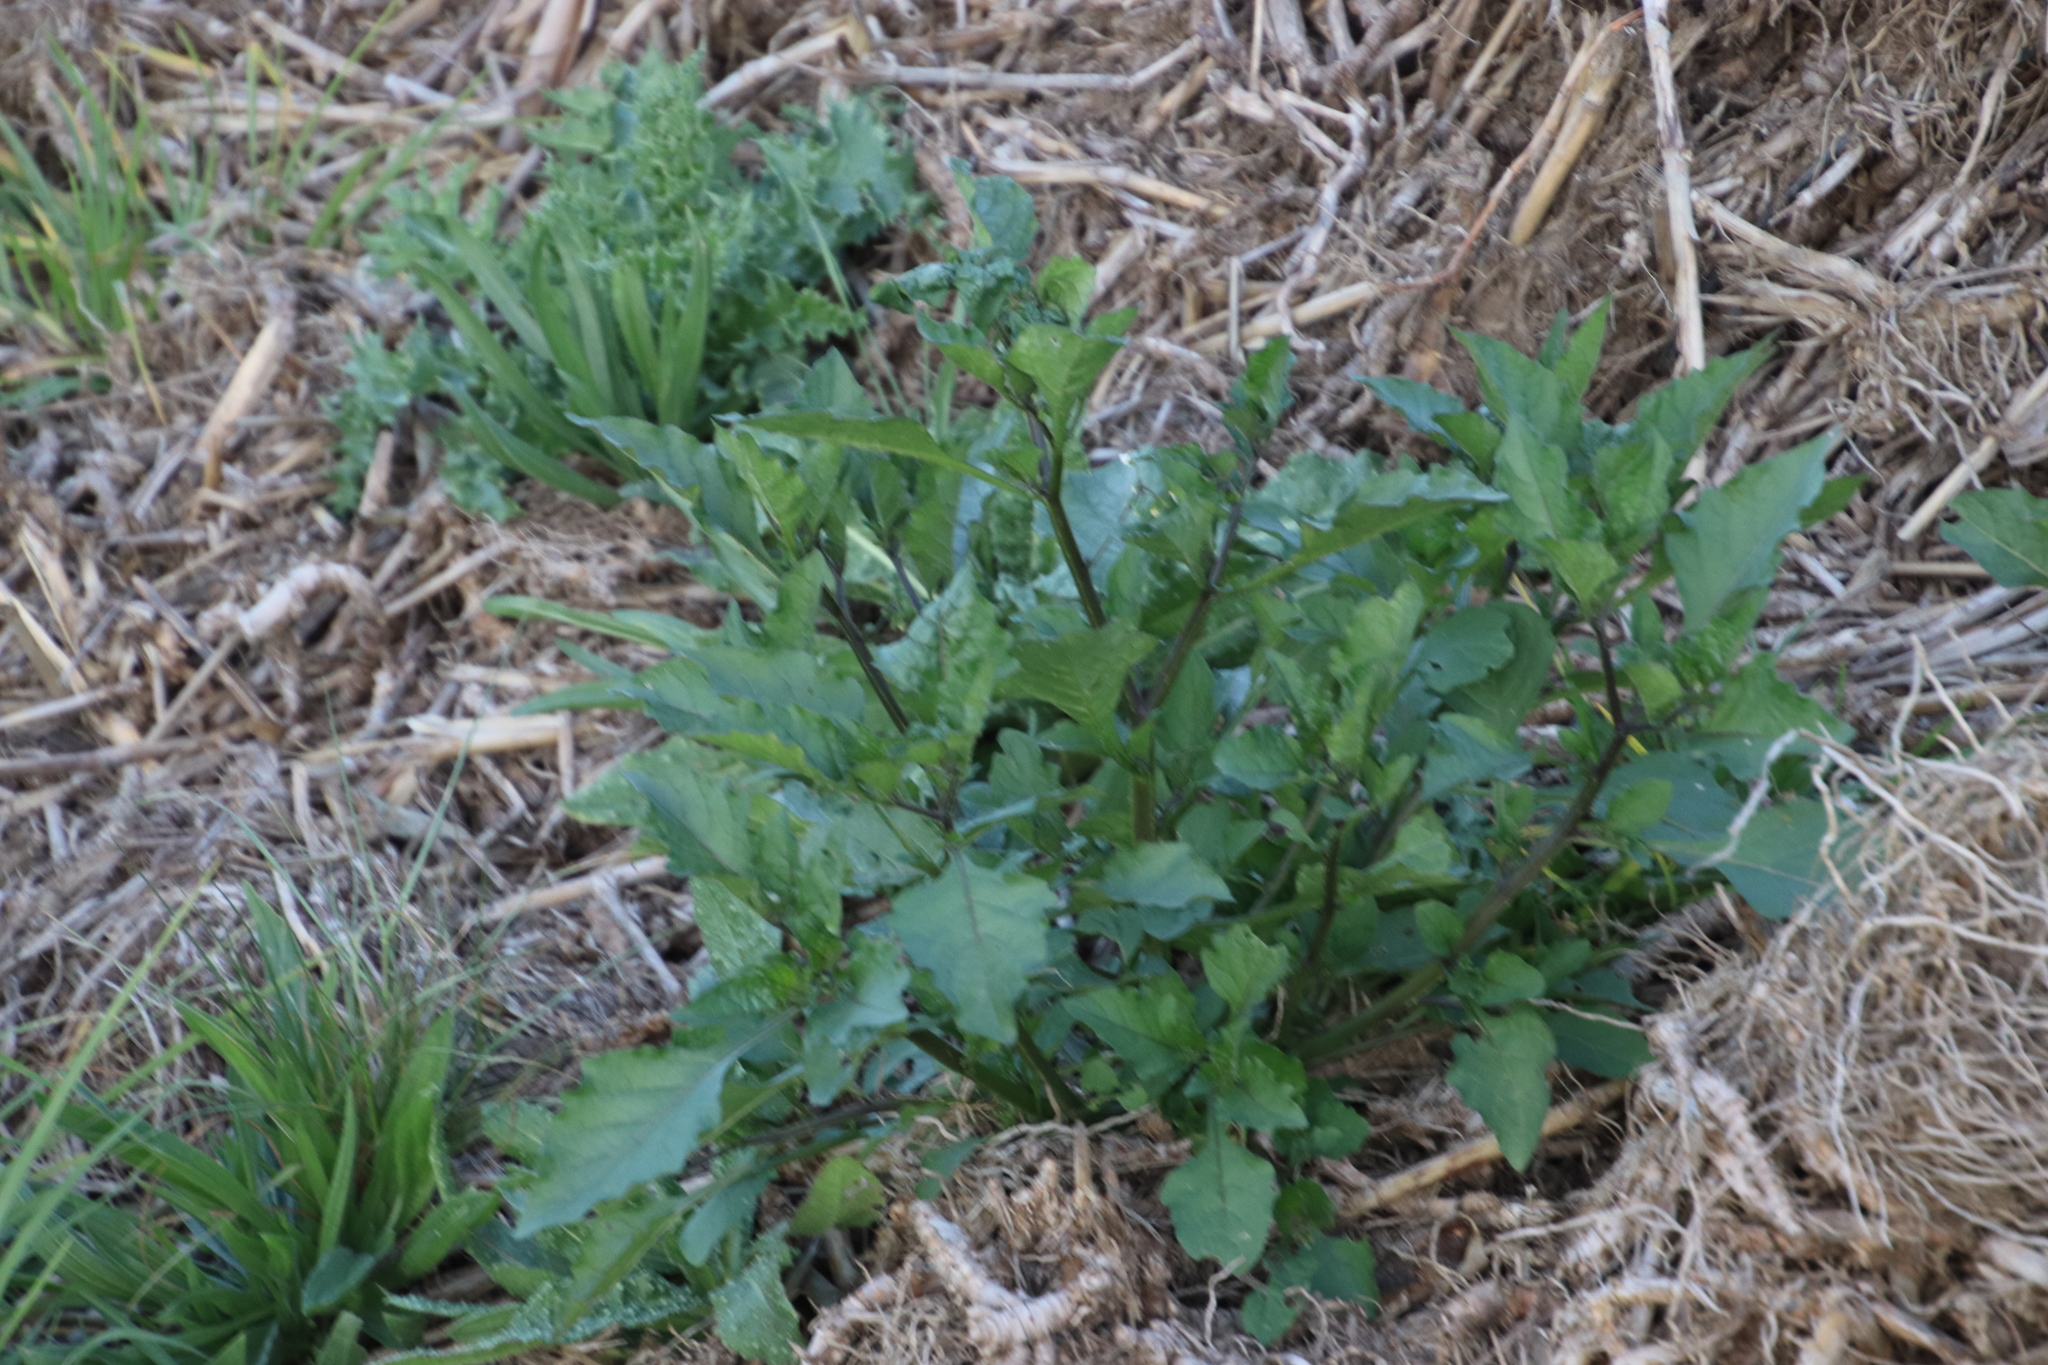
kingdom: Plantae
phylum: Tracheophyta
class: Magnoliopsida
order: Solanales
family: Solanaceae
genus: Solanum
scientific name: Solanum nigrum
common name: Black nightshade
